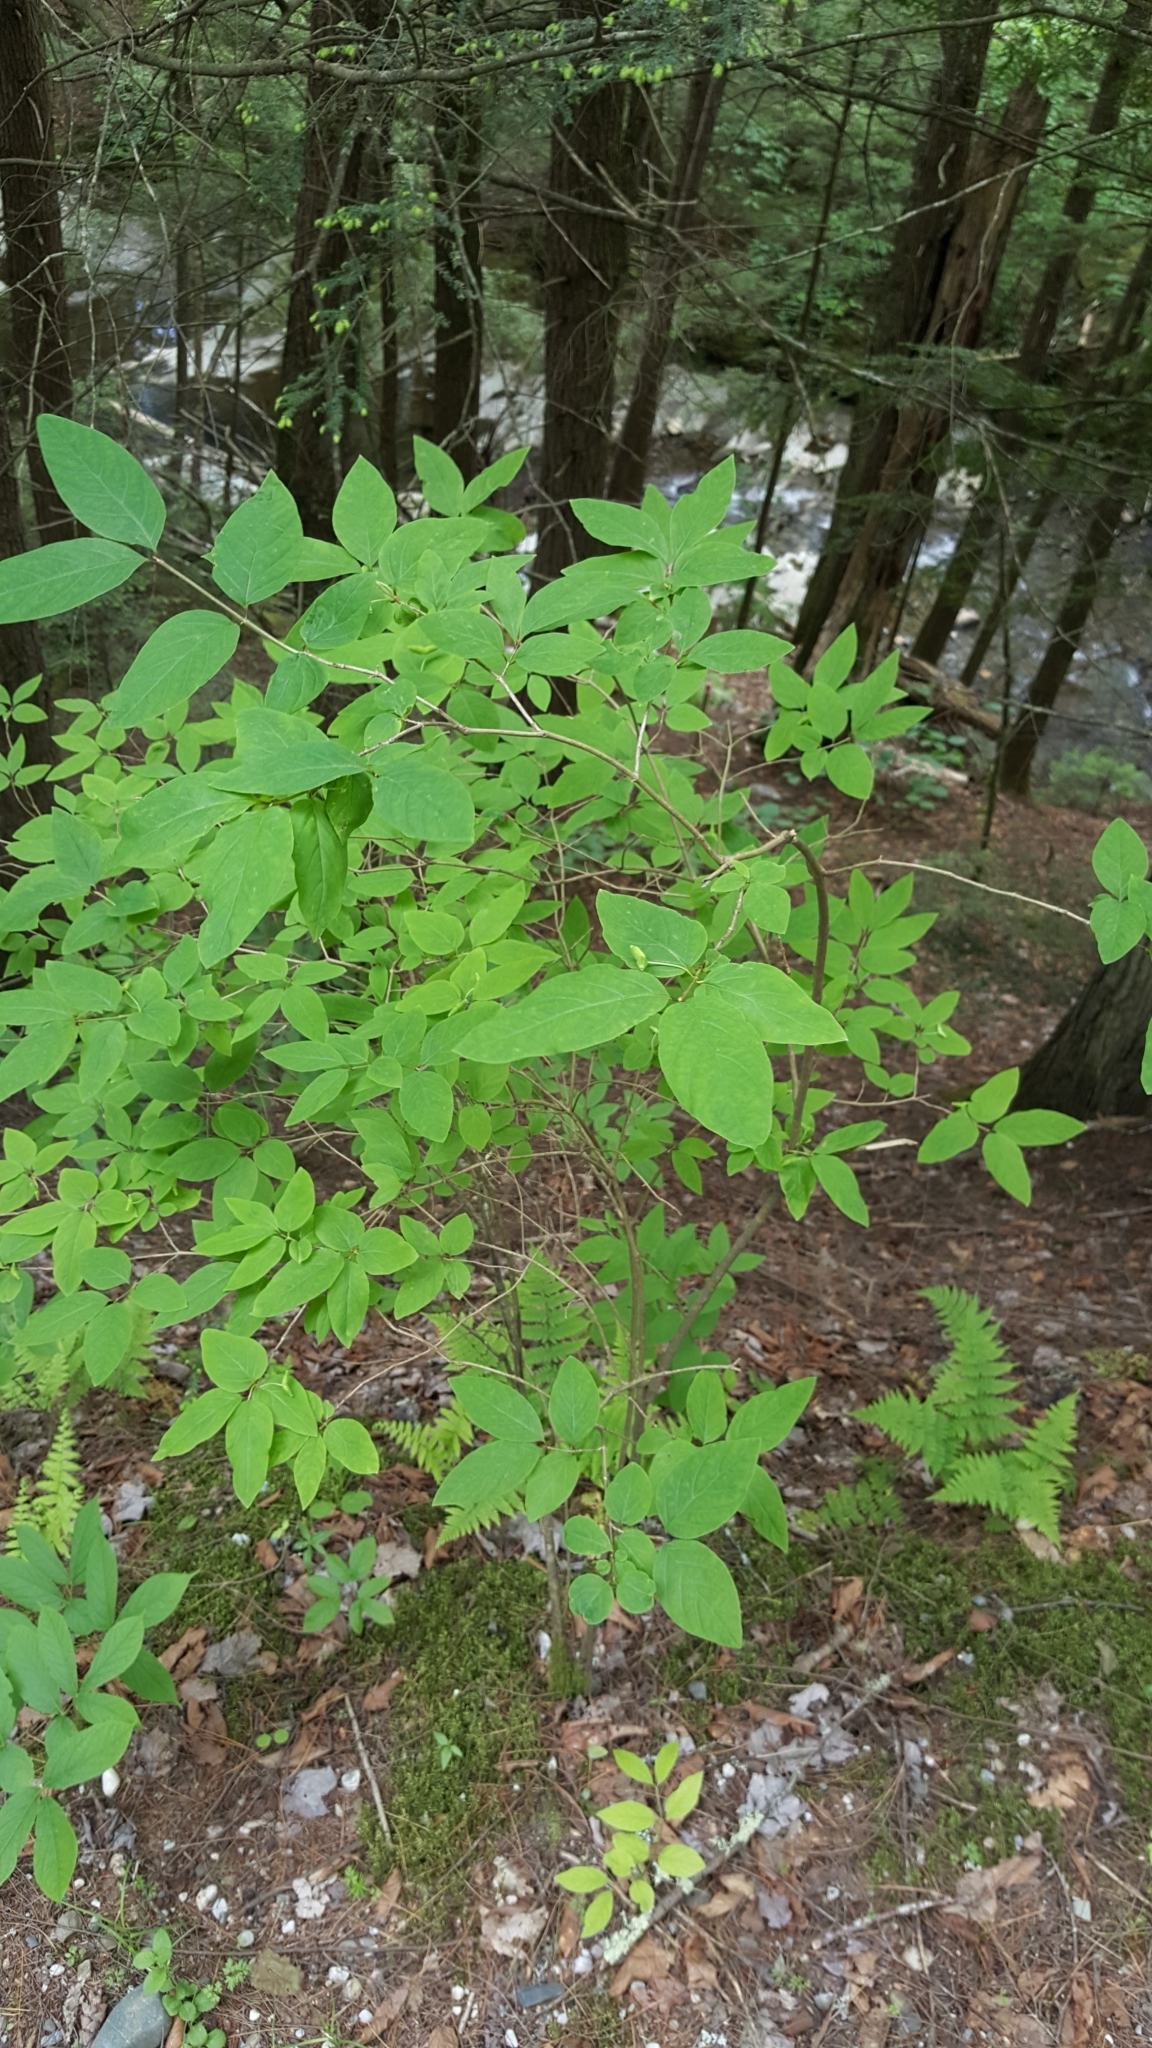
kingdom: Plantae
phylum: Tracheophyta
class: Magnoliopsida
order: Dipsacales
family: Caprifoliaceae
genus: Lonicera
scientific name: Lonicera canadensis
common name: American fly-honeysuckle
